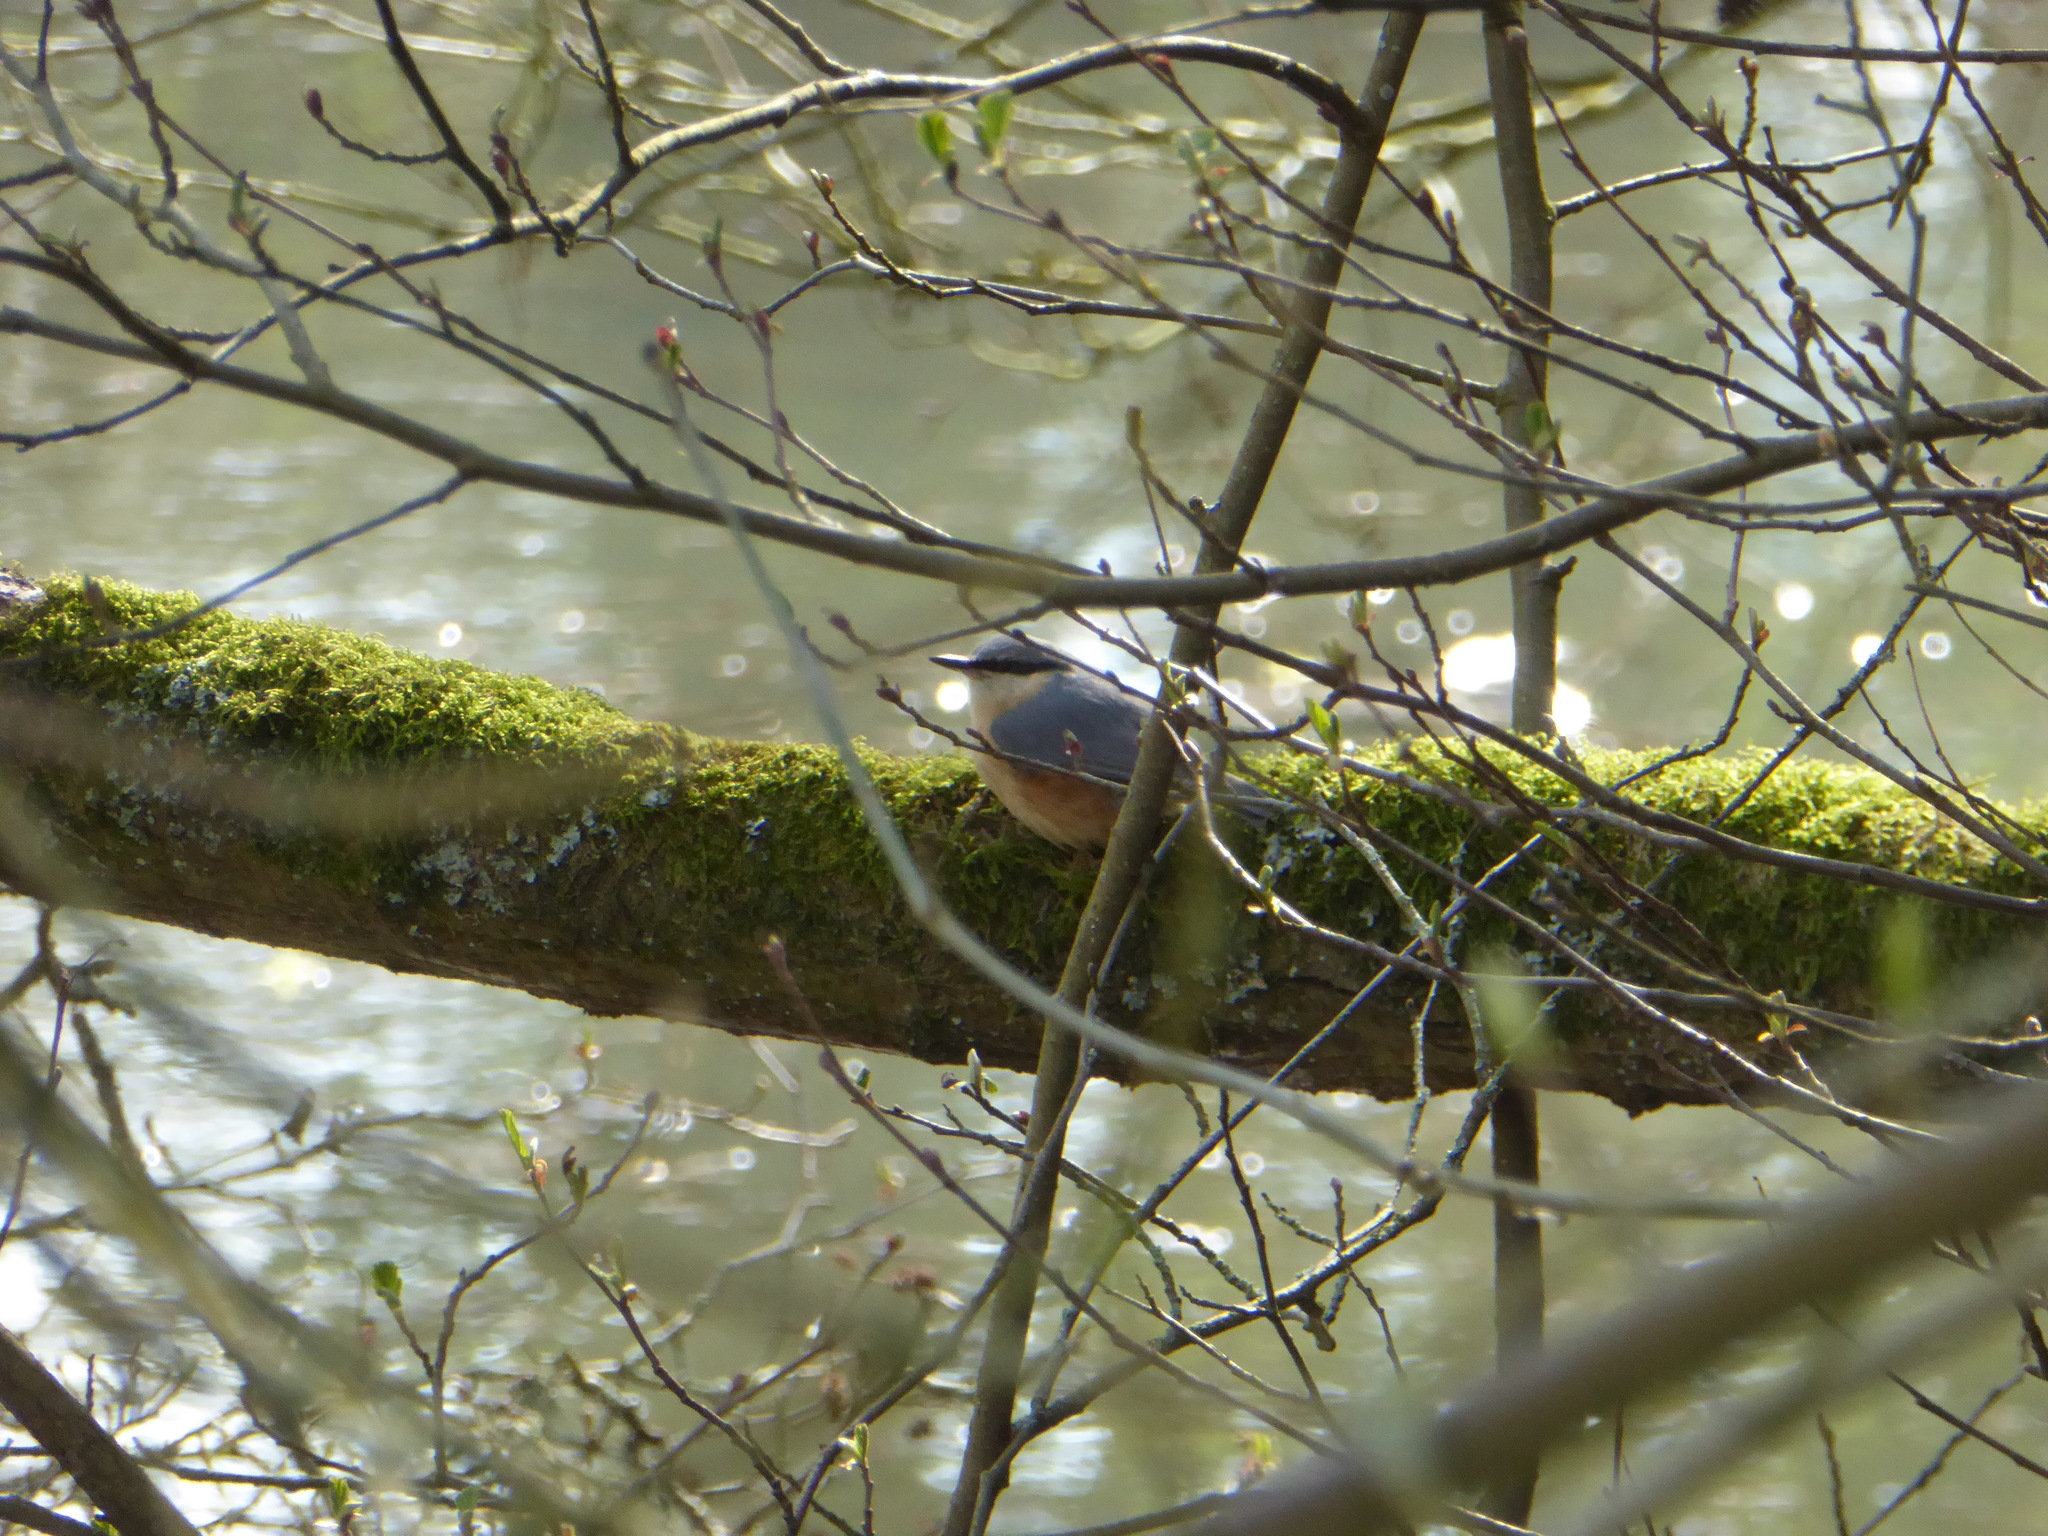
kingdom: Animalia
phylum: Chordata
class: Aves
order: Passeriformes
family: Sittidae
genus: Sitta
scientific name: Sitta europaea
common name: Eurasian nuthatch
